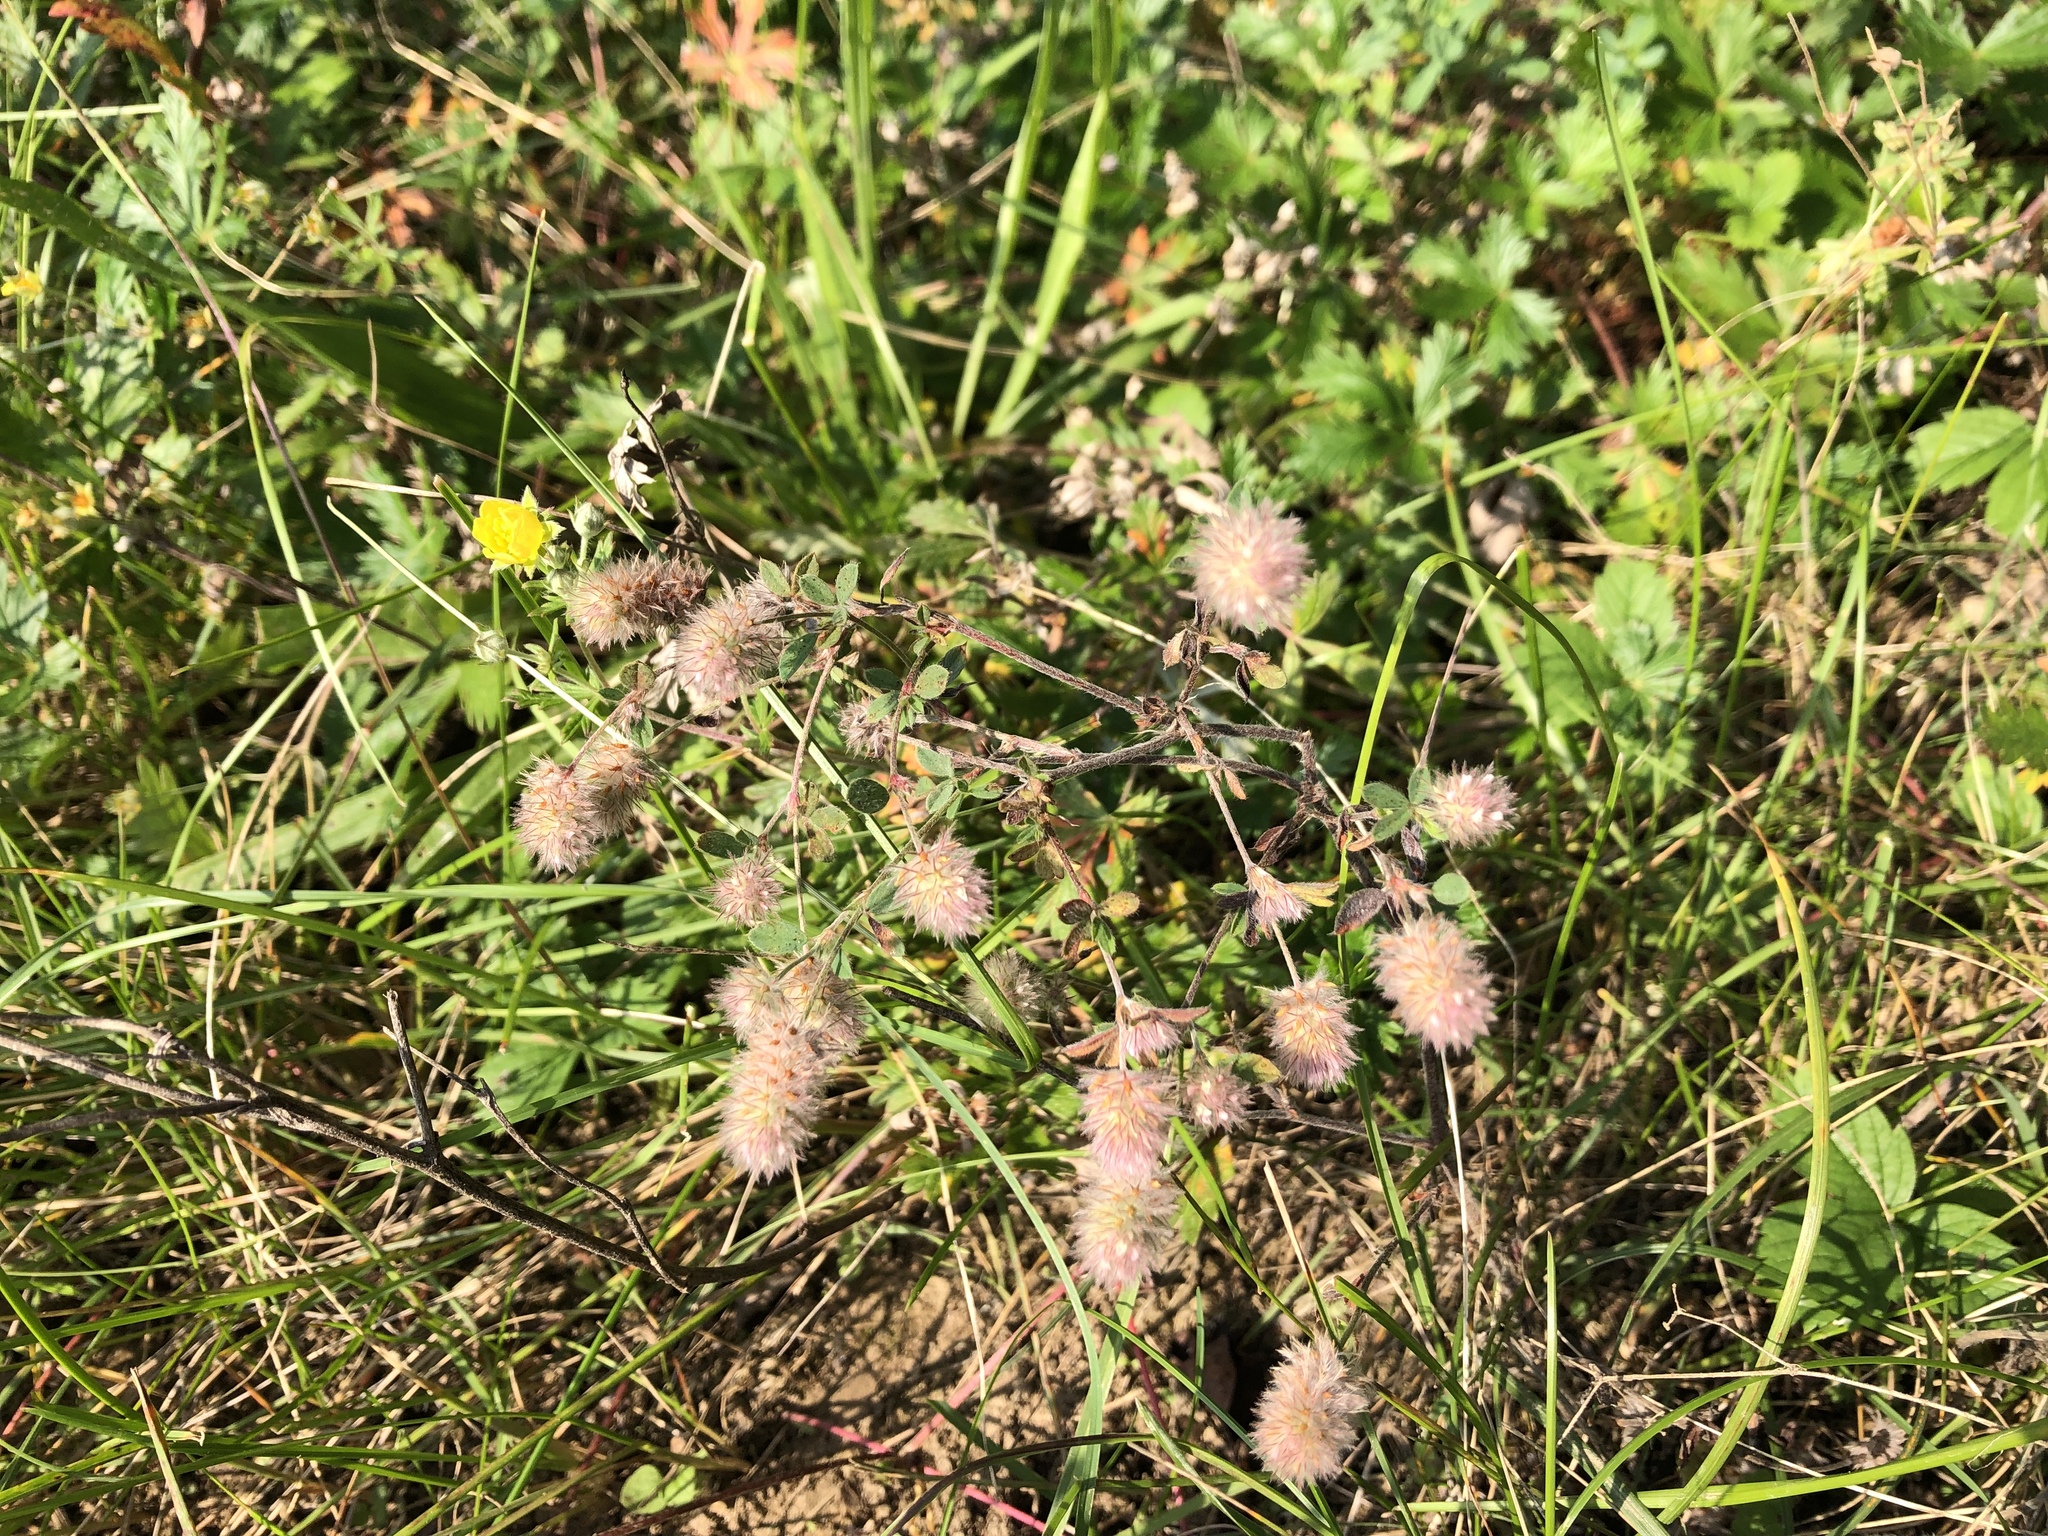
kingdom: Plantae
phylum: Tracheophyta
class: Magnoliopsida
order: Fabales
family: Fabaceae
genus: Trifolium
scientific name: Trifolium arvense
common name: Hare's-foot clover
